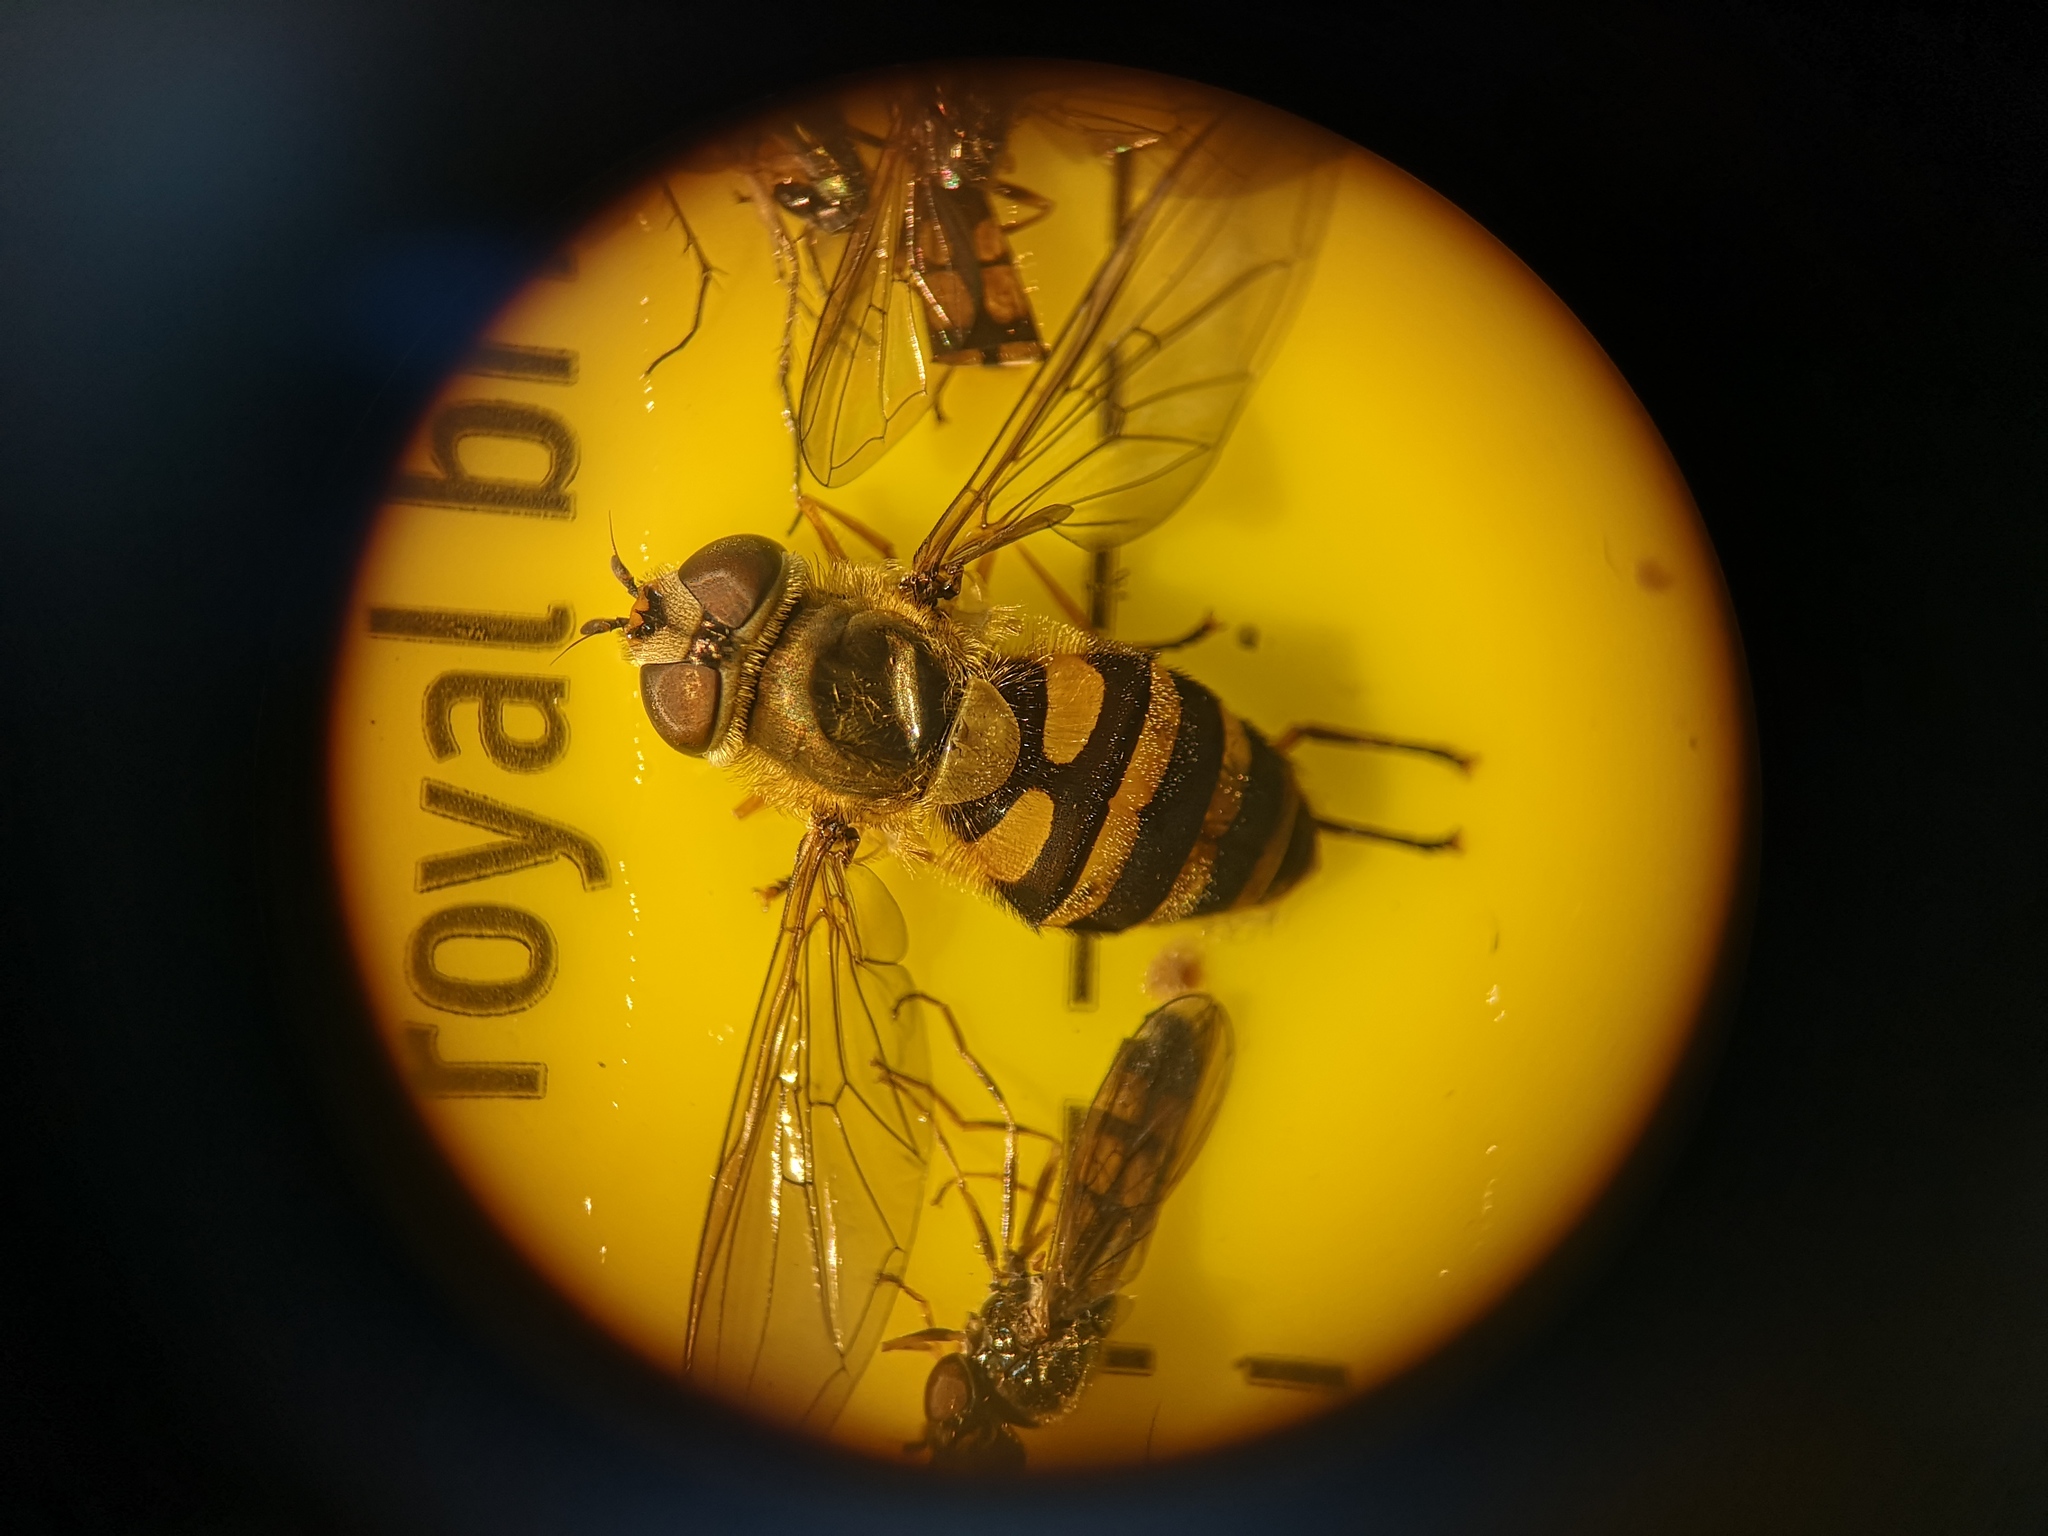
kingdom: Animalia
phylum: Arthropoda
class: Insecta
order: Diptera
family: Syrphidae
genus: Syrphus
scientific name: Syrphus
